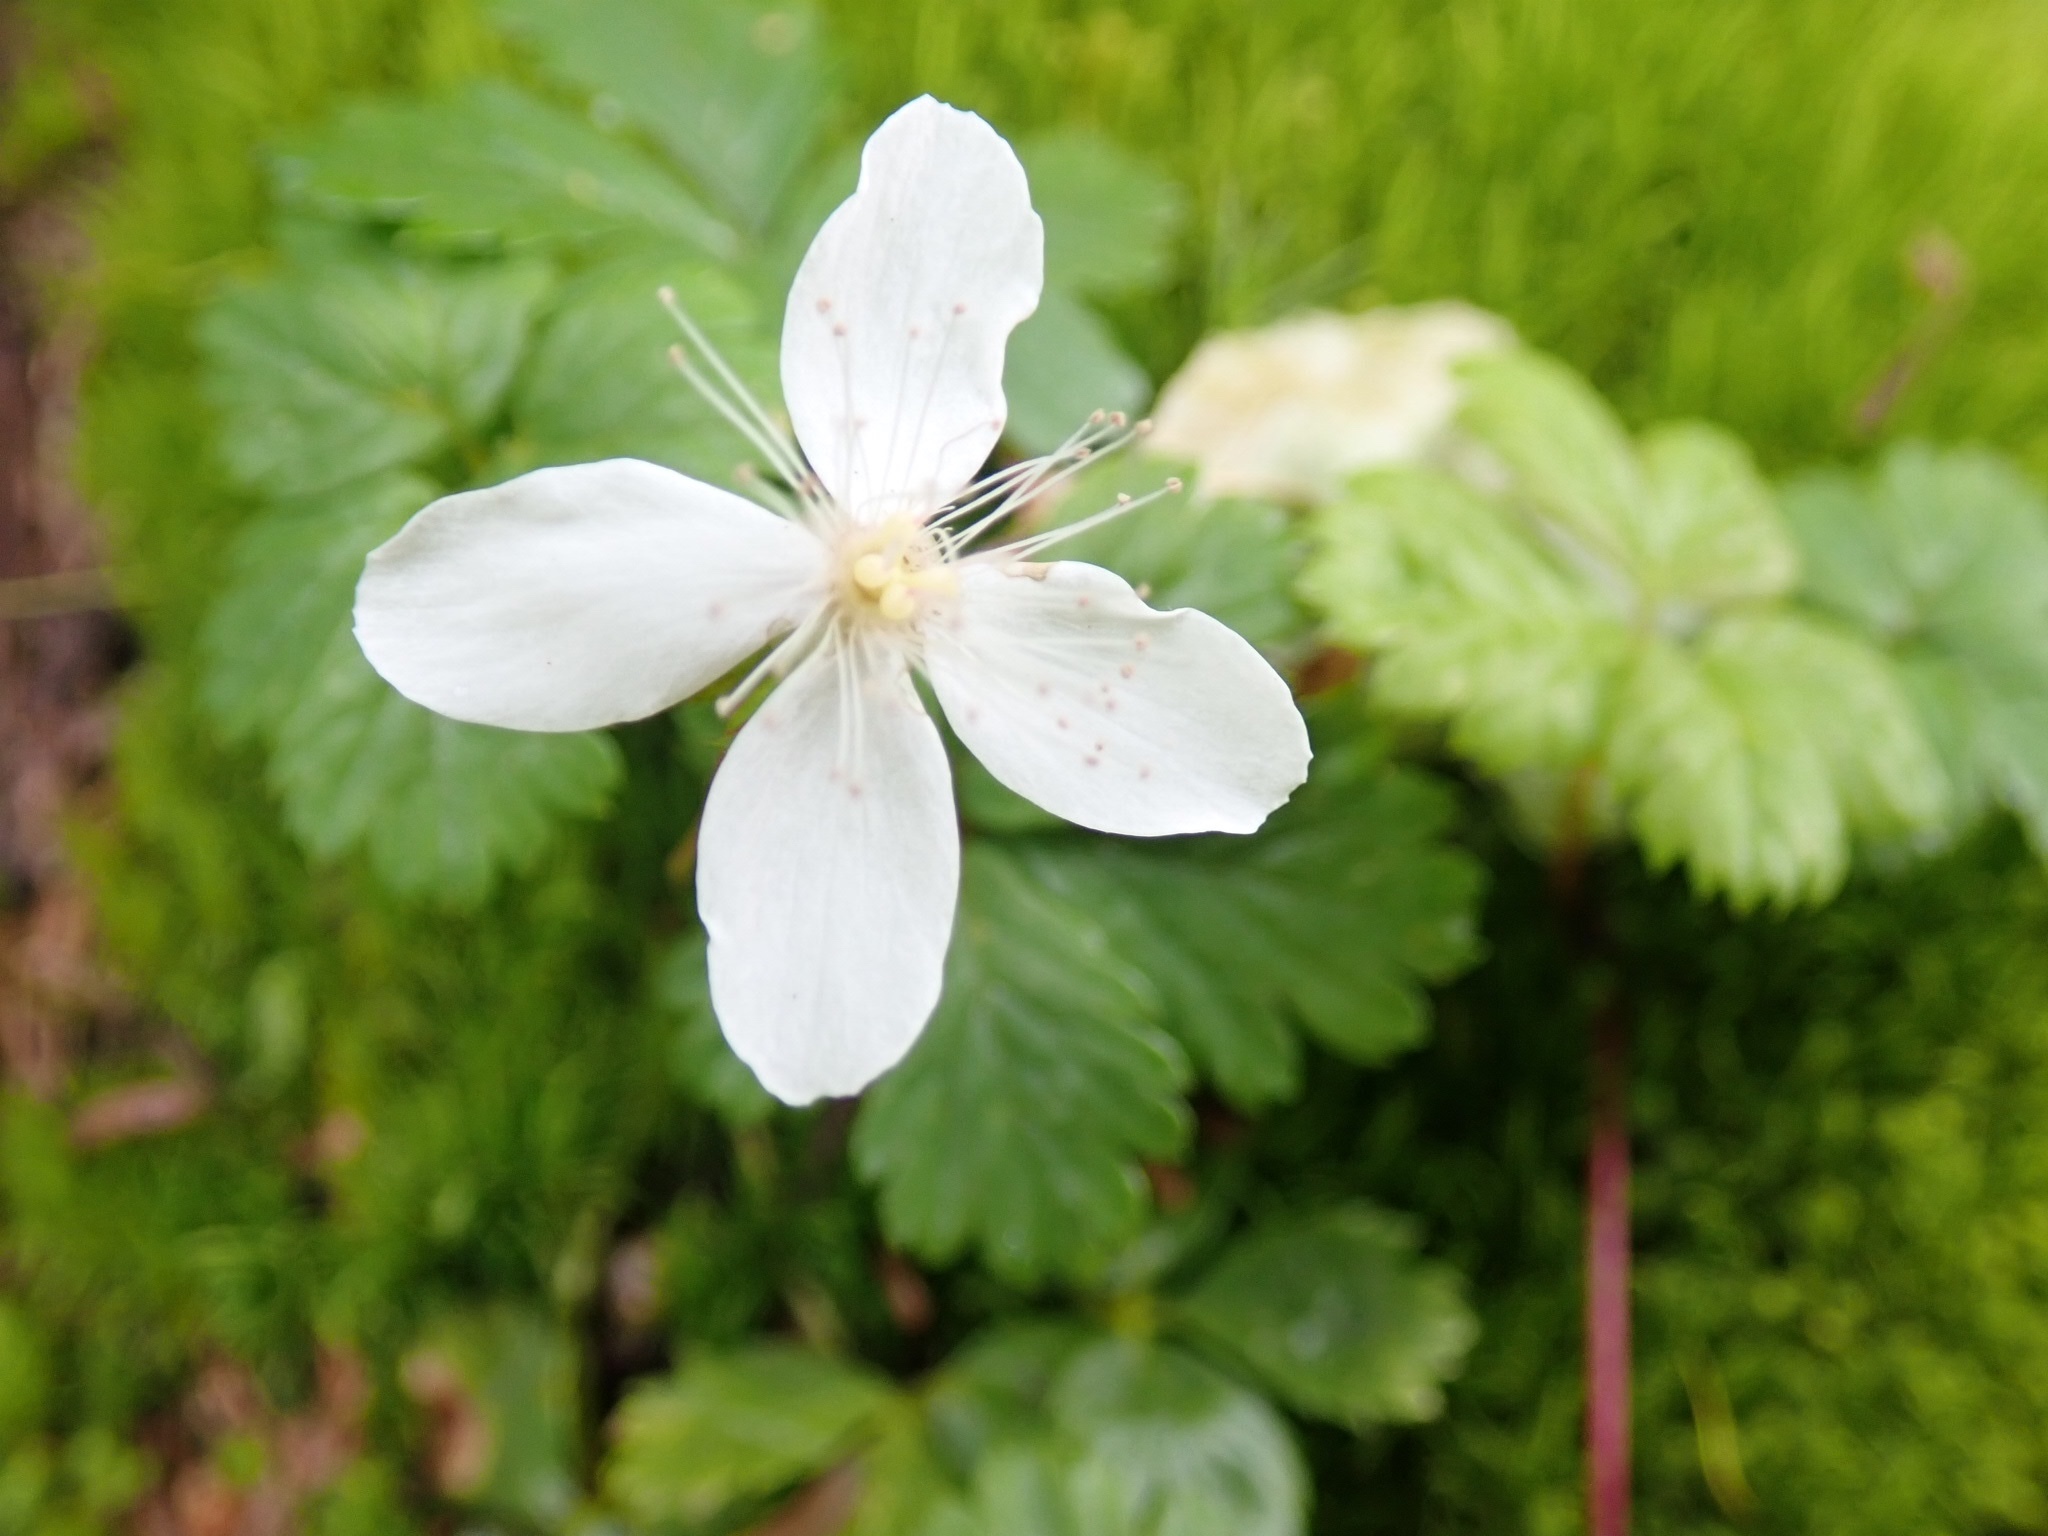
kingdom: Plantae
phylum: Tracheophyta
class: Magnoliopsida
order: Rosales
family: Rosaceae
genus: Rubus
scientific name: Rubus pedatus
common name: Creeping raspberry
